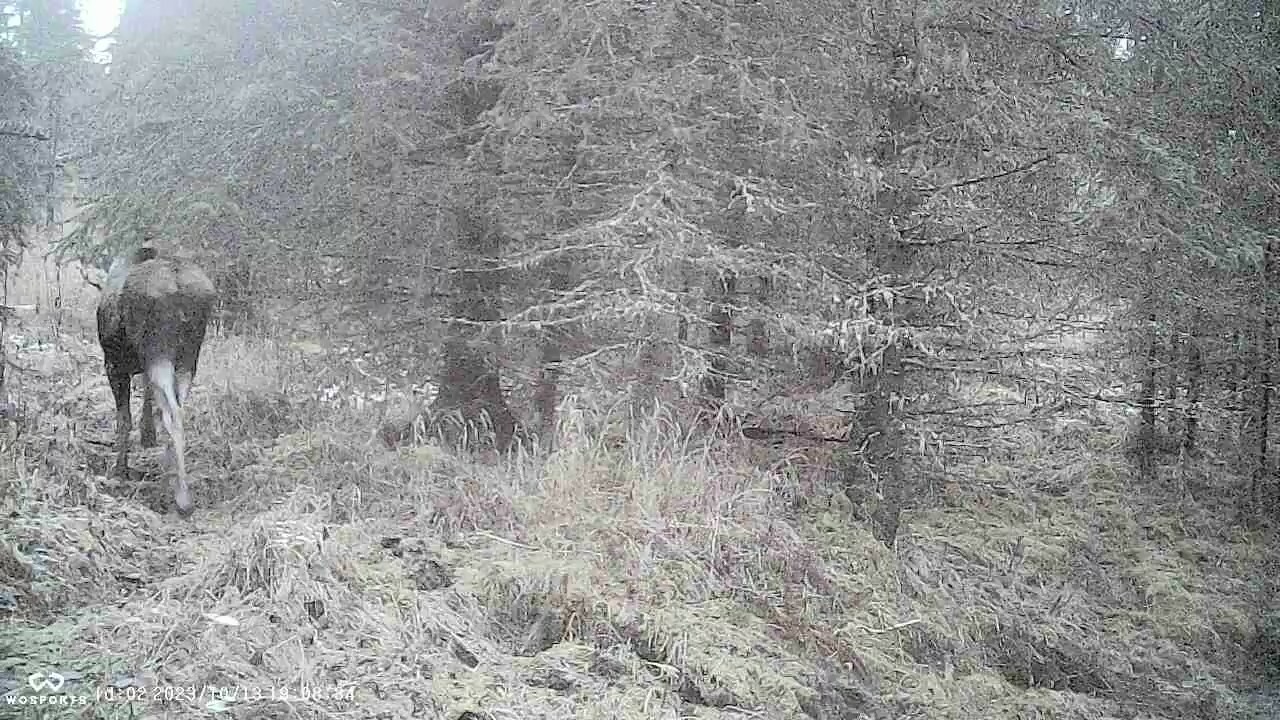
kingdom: Animalia
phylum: Chordata
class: Mammalia
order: Artiodactyla
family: Cervidae
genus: Alces
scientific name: Alces alces
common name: Moose
